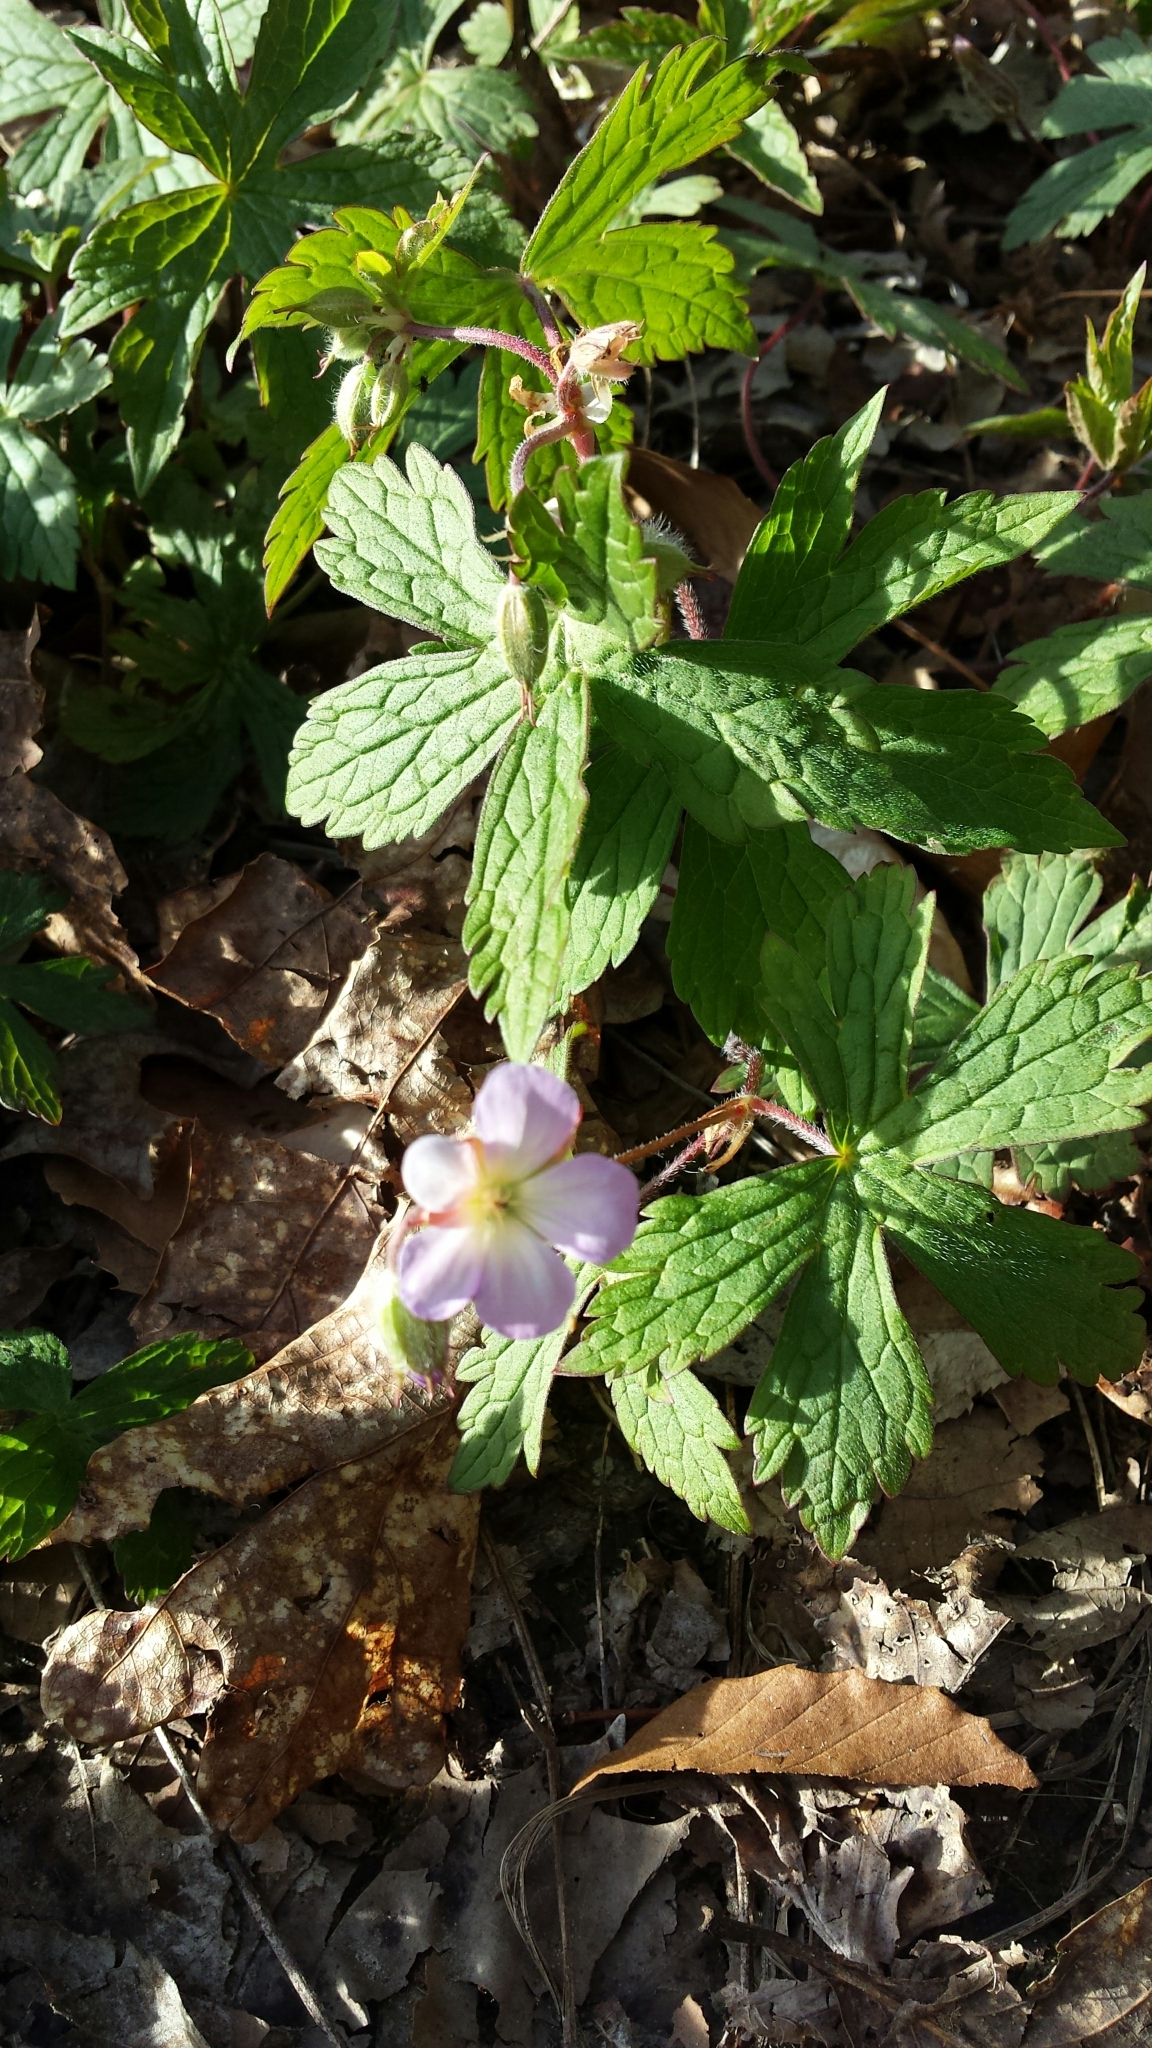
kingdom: Plantae
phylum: Tracheophyta
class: Magnoliopsida
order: Geraniales
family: Geraniaceae
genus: Geranium
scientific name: Geranium maculatum
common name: Spotted geranium
